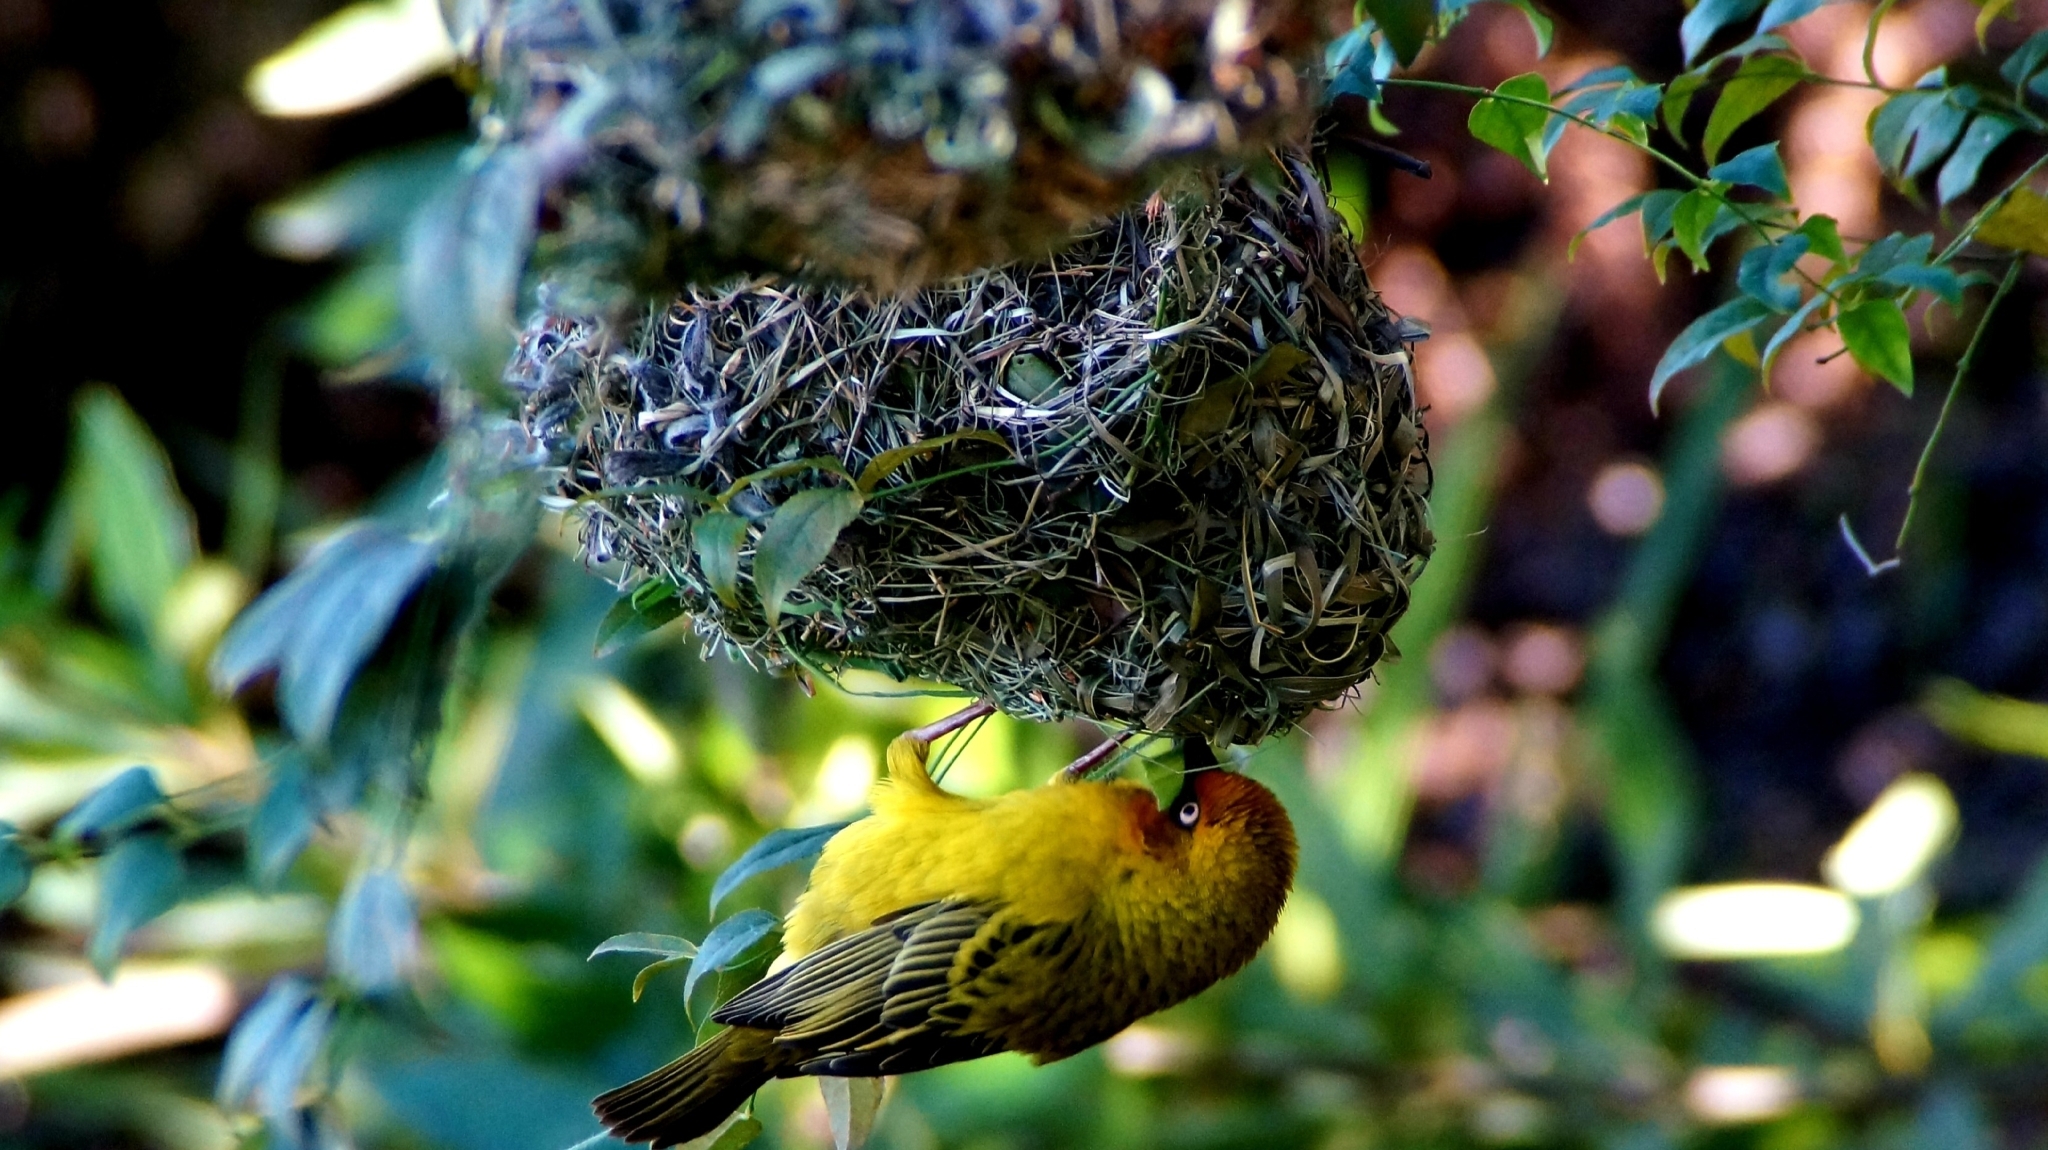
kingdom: Animalia
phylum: Chordata
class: Aves
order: Passeriformes
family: Ploceidae
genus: Ploceus
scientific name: Ploceus capensis
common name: Cape weaver
